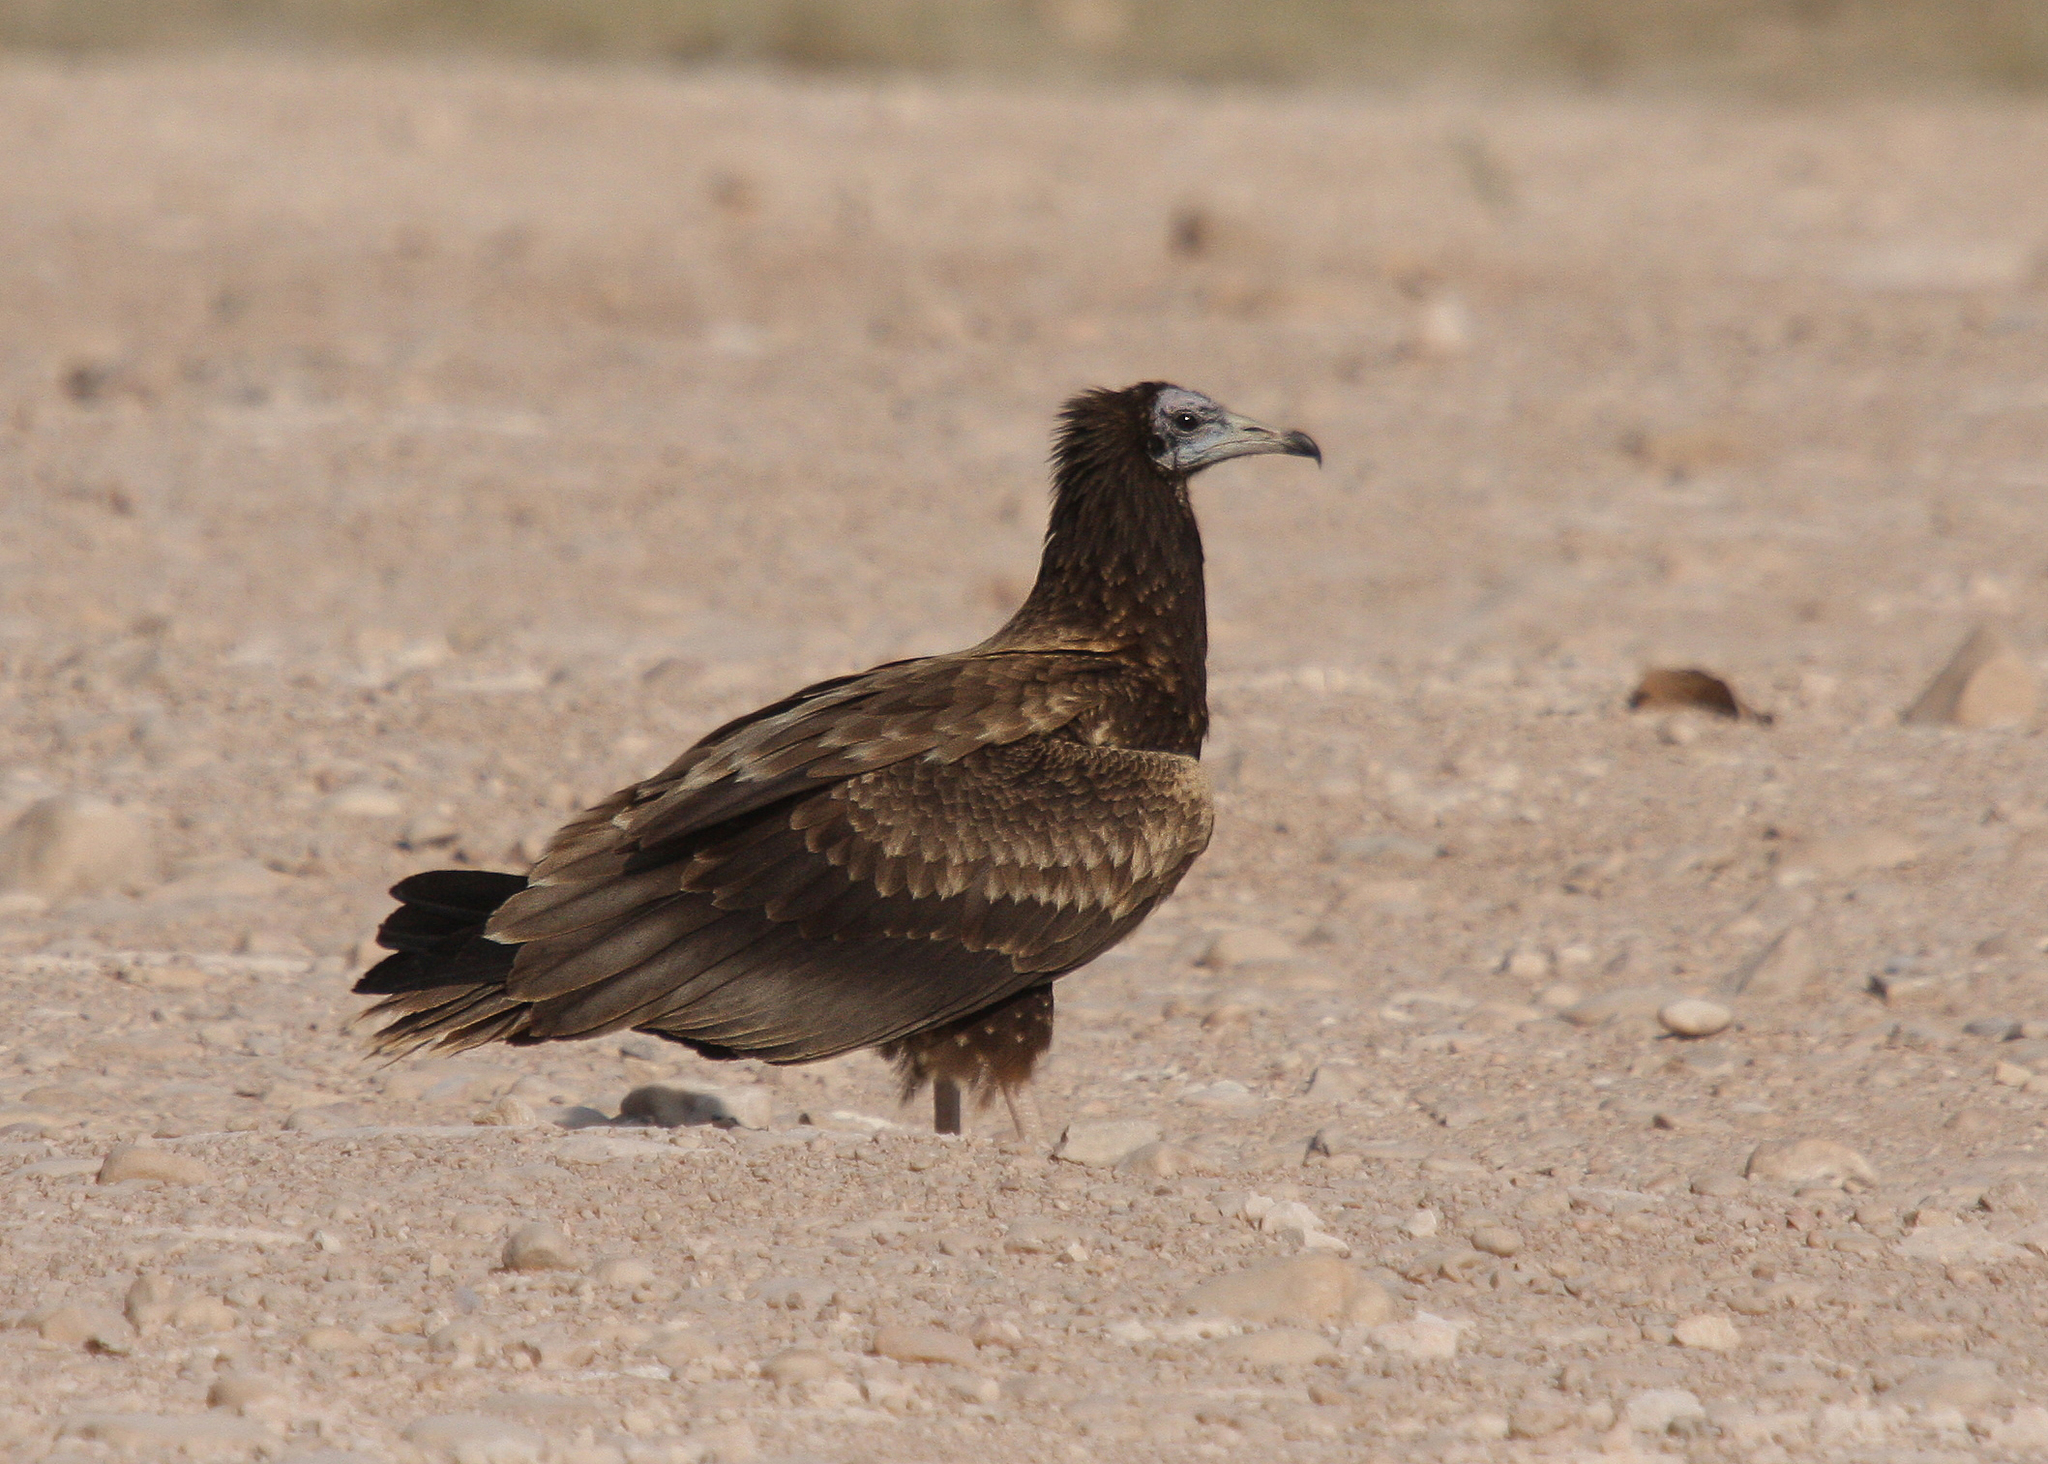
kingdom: Animalia
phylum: Chordata
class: Aves
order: Accipitriformes
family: Accipitridae
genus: Neophron
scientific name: Neophron percnopterus
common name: Egyptian vulture
